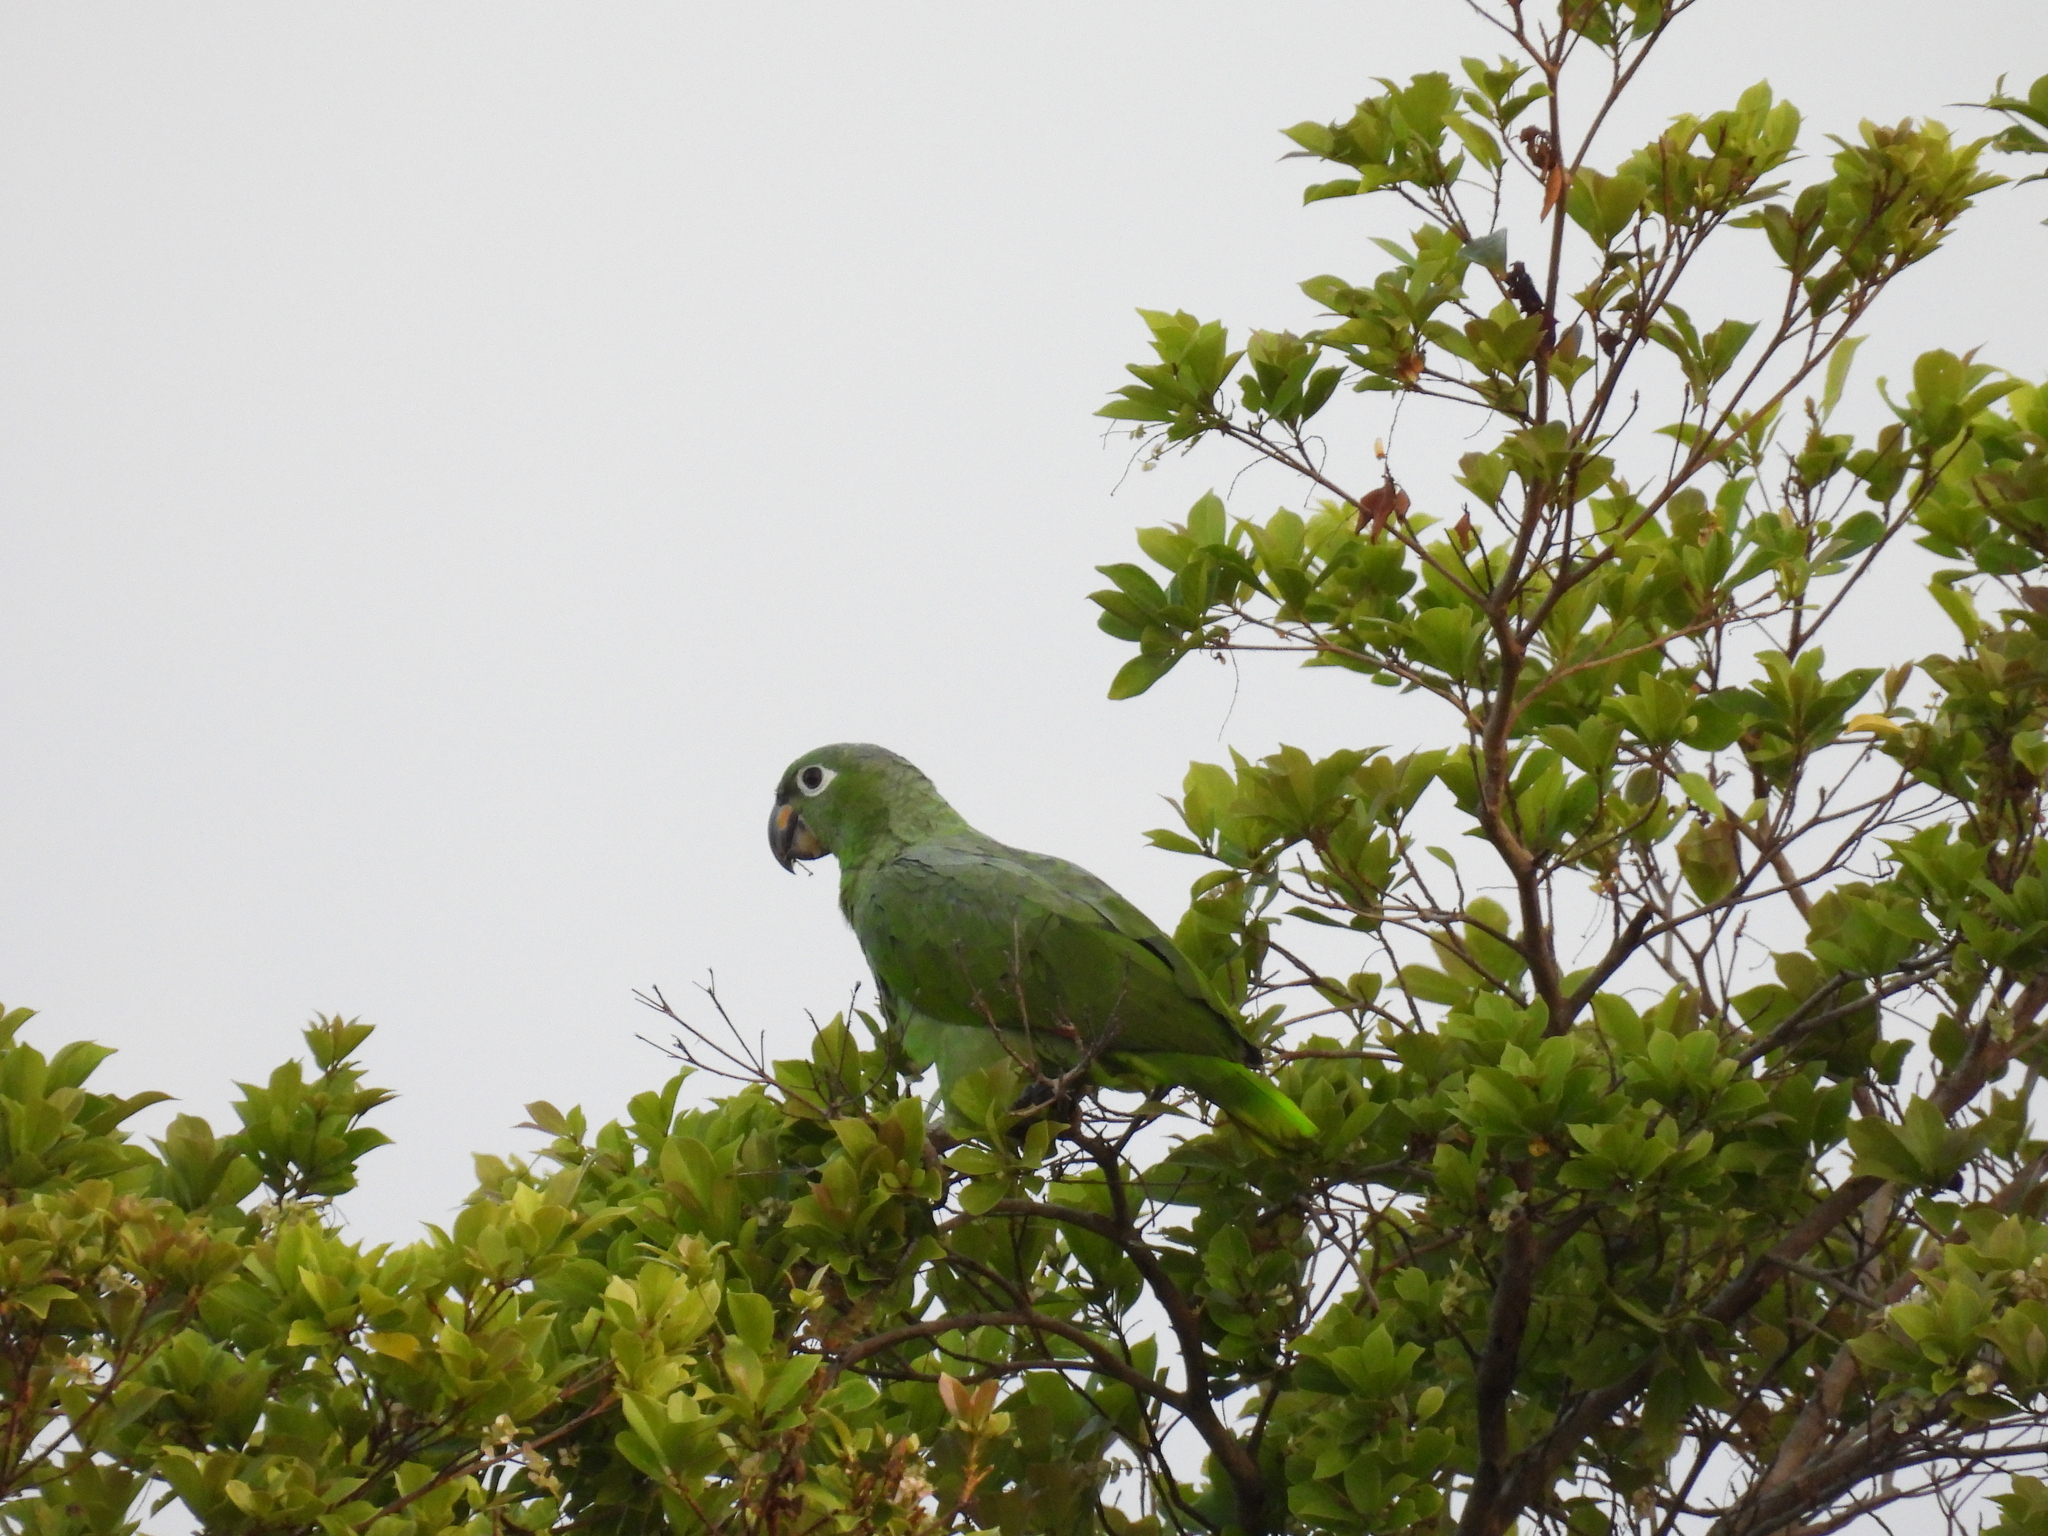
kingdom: Animalia
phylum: Chordata
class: Aves
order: Psittaciformes
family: Psittacidae
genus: Amazona
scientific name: Amazona farinosa
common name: Mealy parrot
